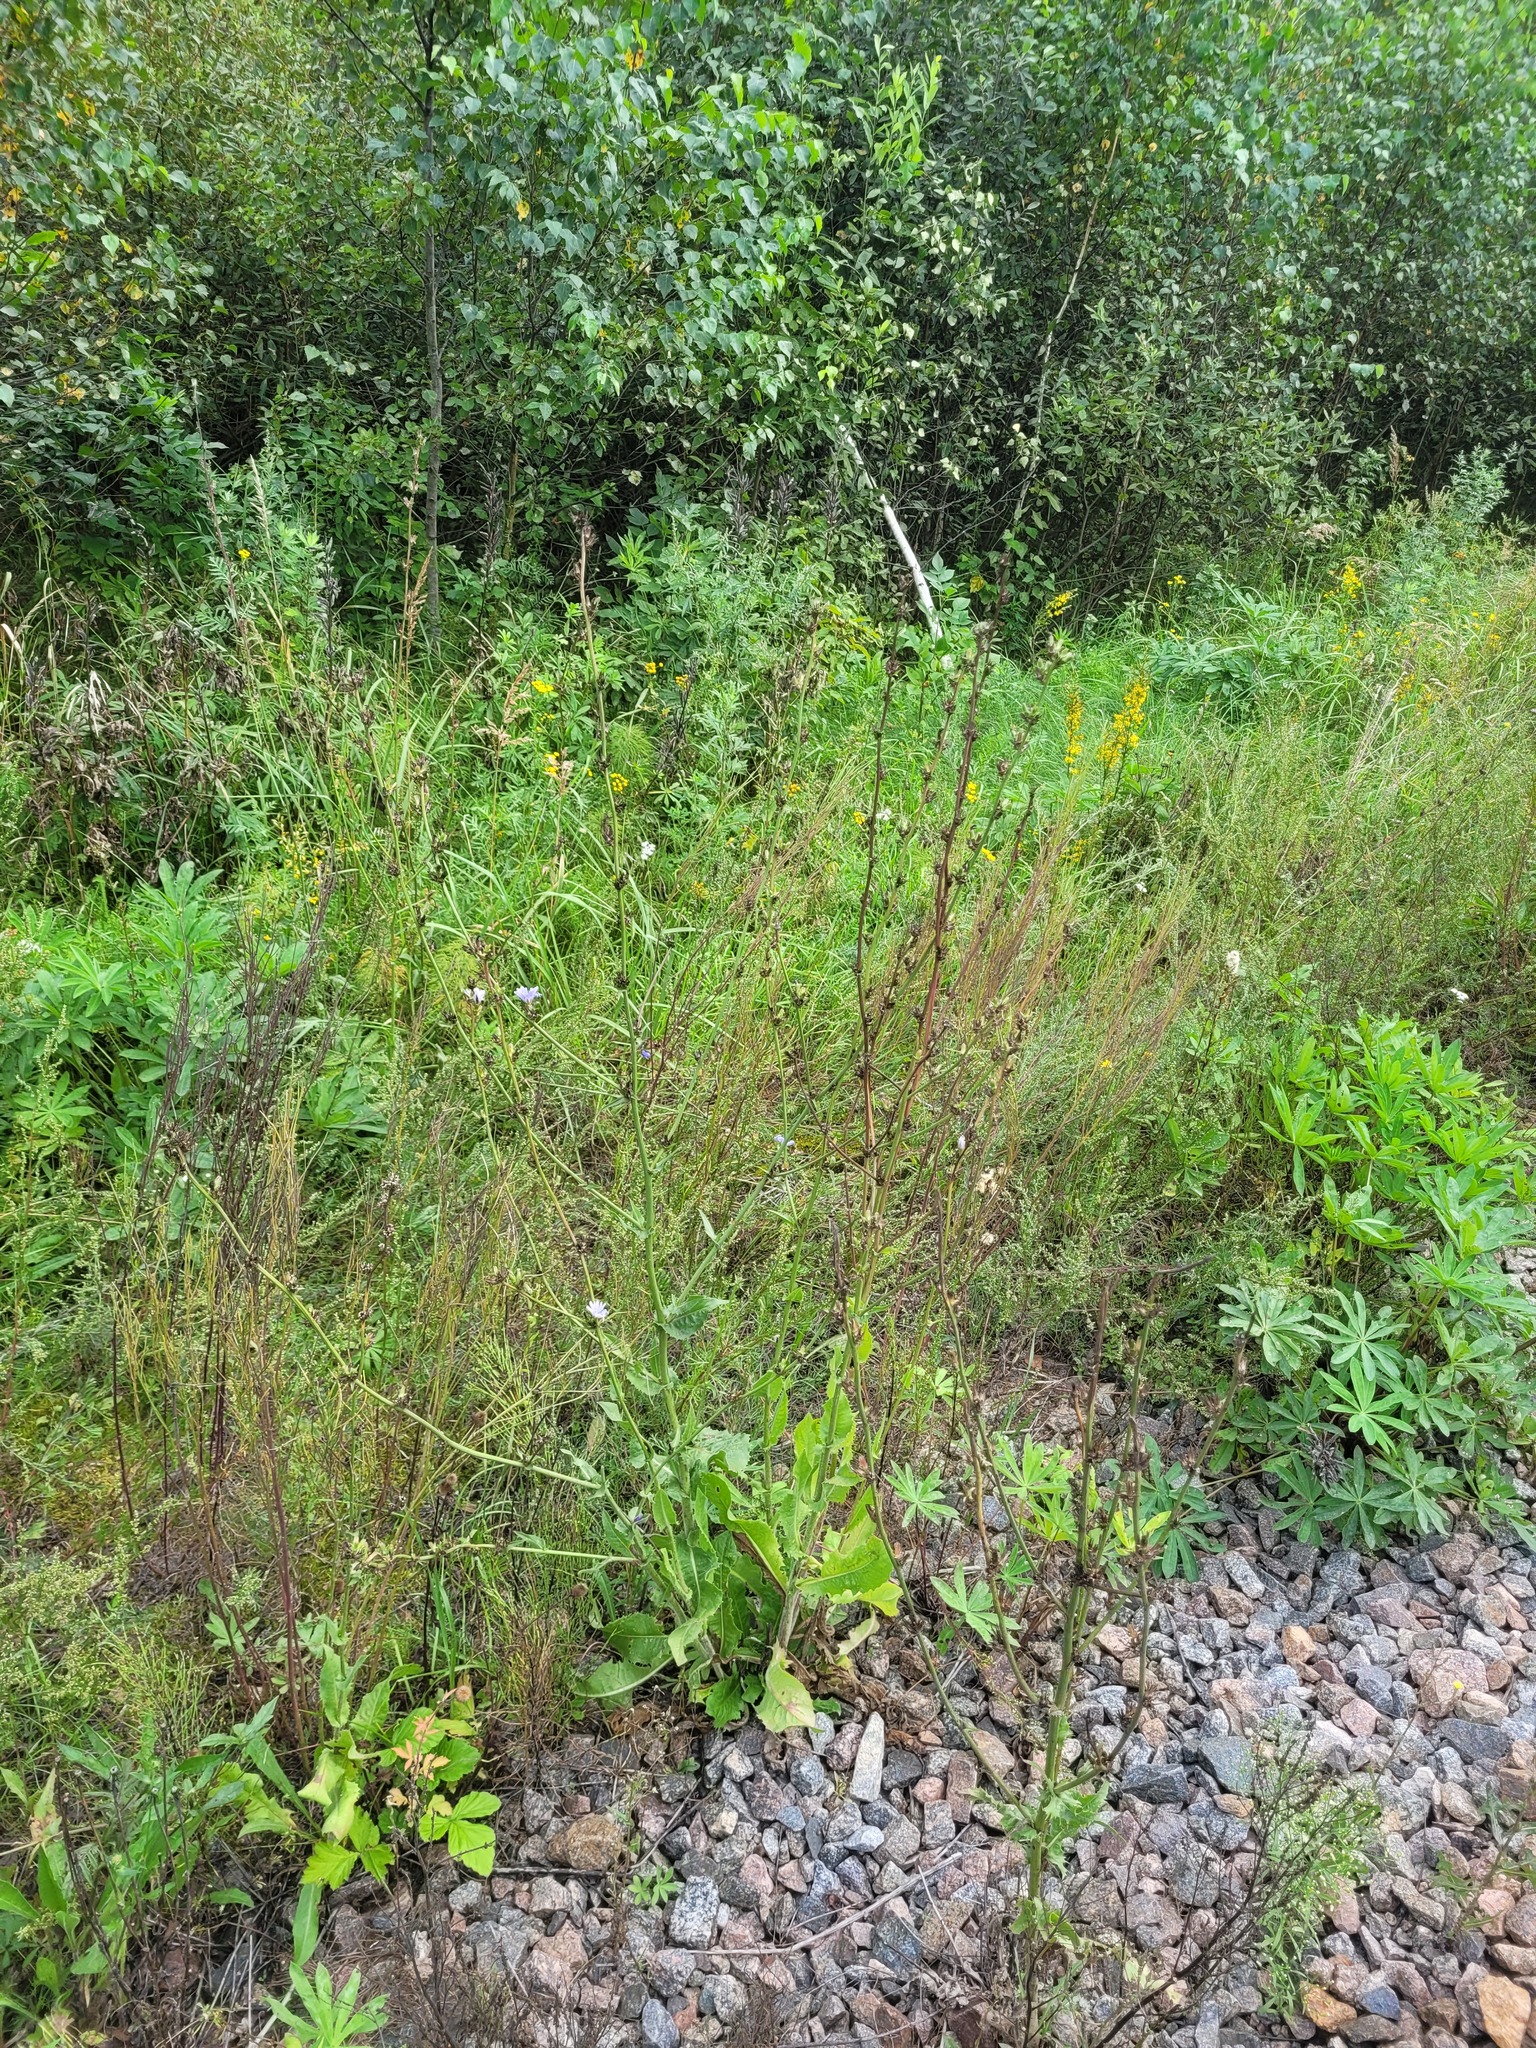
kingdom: Plantae
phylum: Tracheophyta
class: Magnoliopsida
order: Asterales
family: Asteraceae
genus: Cichorium
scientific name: Cichorium intybus
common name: Chicory
